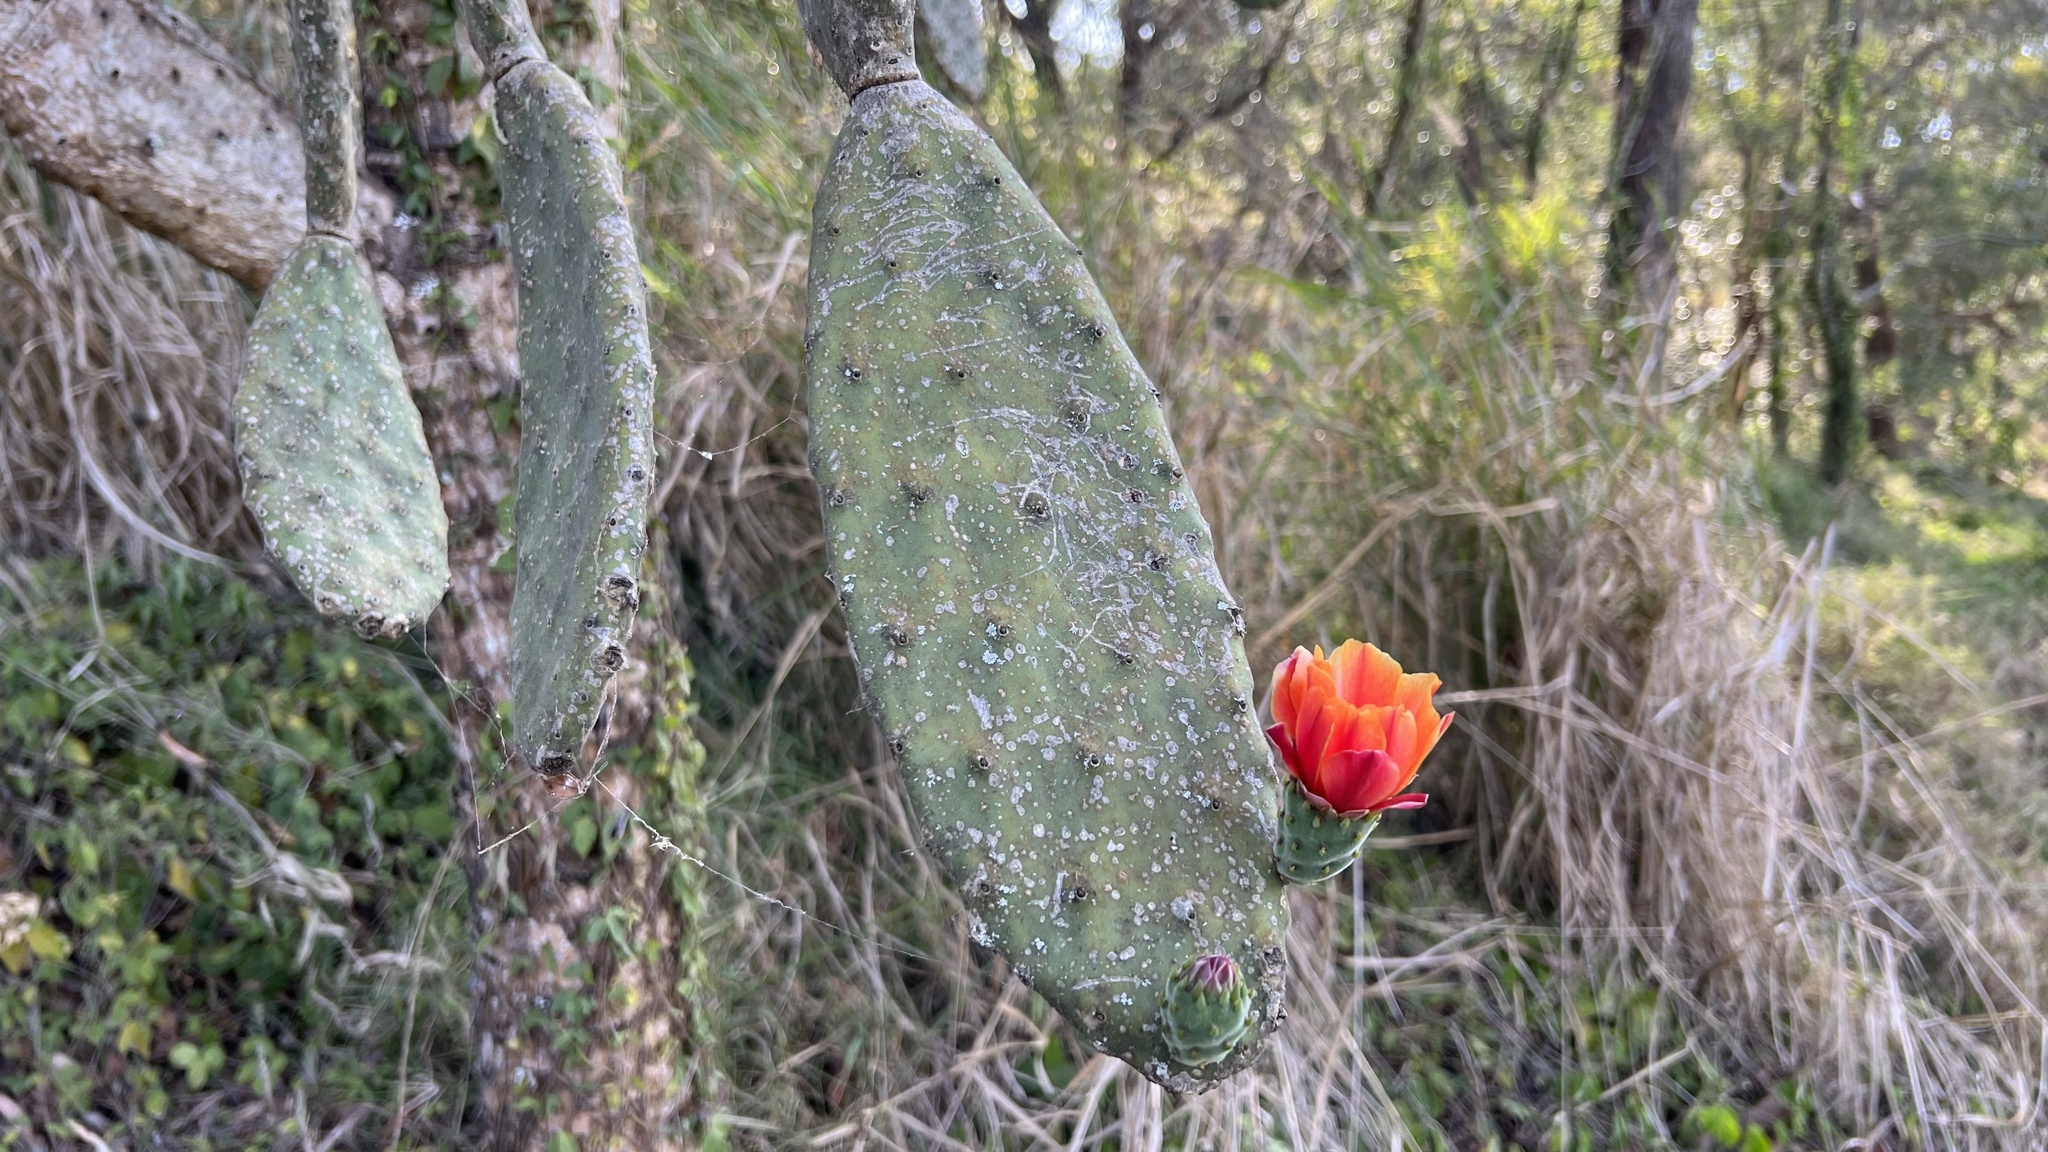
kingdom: Plantae
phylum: Tracheophyta
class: Magnoliopsida
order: Caryophyllales
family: Cactaceae
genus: Opuntia
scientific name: Opuntia tomentosa
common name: Woollyjoint pricklypear
